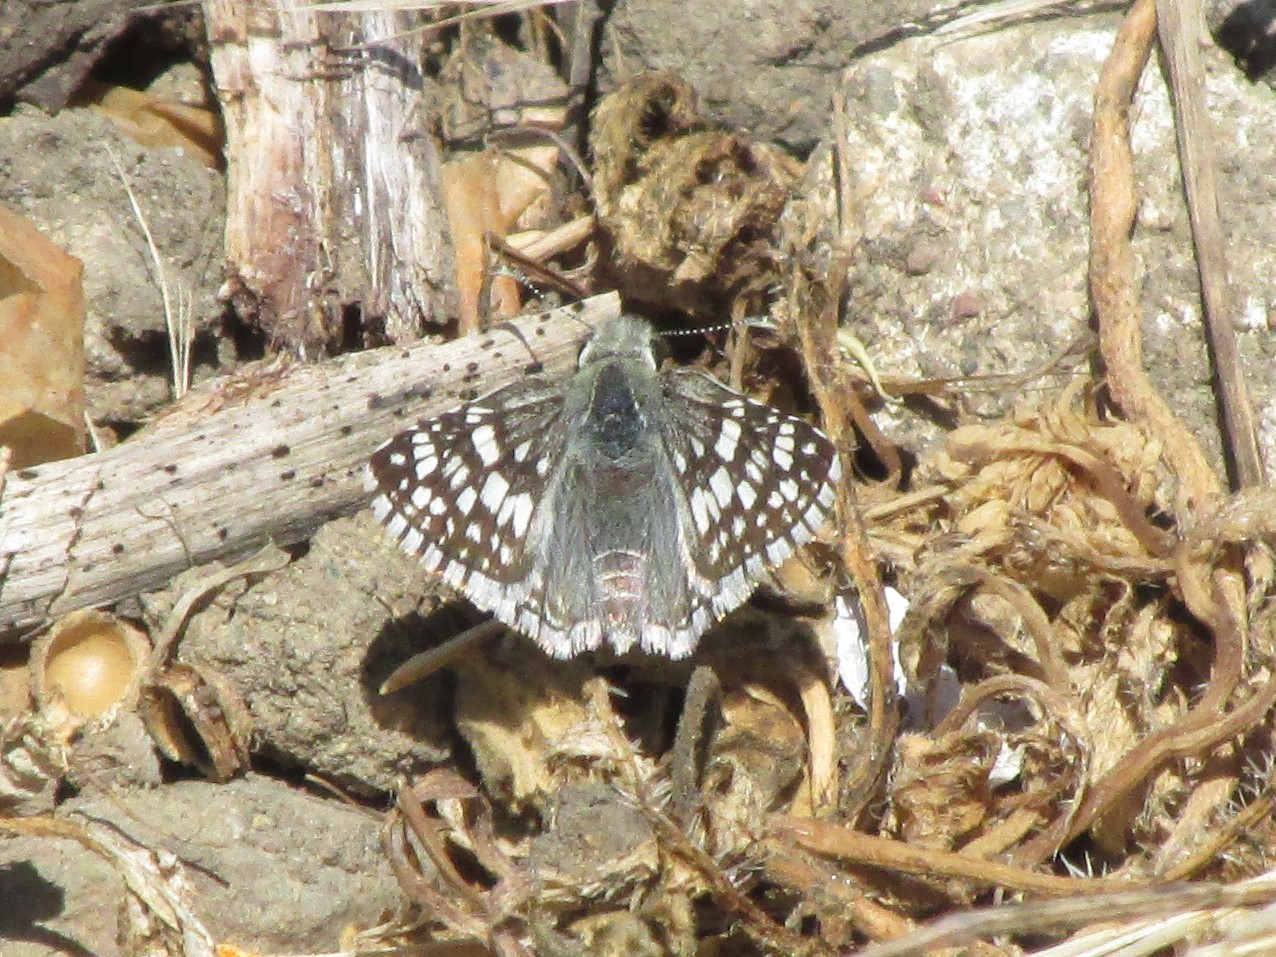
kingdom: Animalia
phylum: Arthropoda
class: Insecta
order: Lepidoptera
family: Hesperiidae
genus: Burnsius
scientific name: Burnsius communis
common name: Common checkered-skipper
